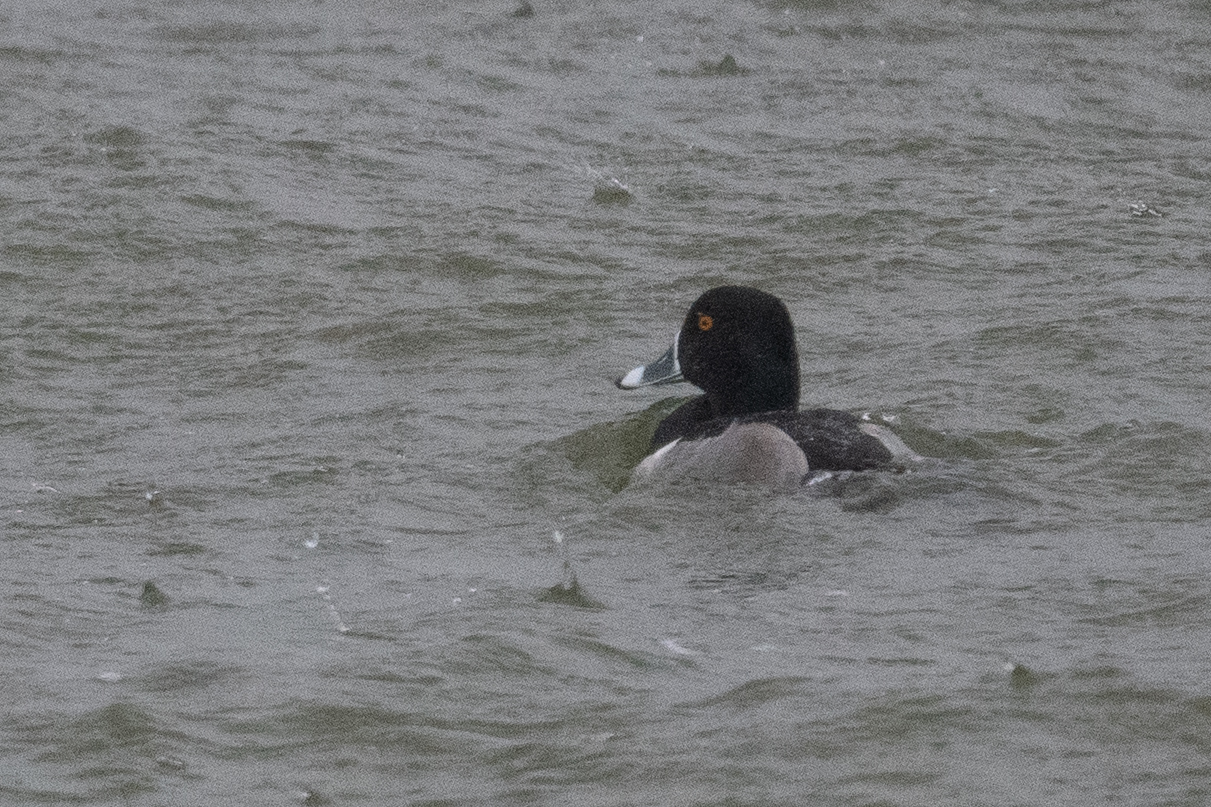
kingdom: Animalia
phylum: Chordata
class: Aves
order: Anseriformes
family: Anatidae
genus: Aythya
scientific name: Aythya collaris
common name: Ring-necked duck
